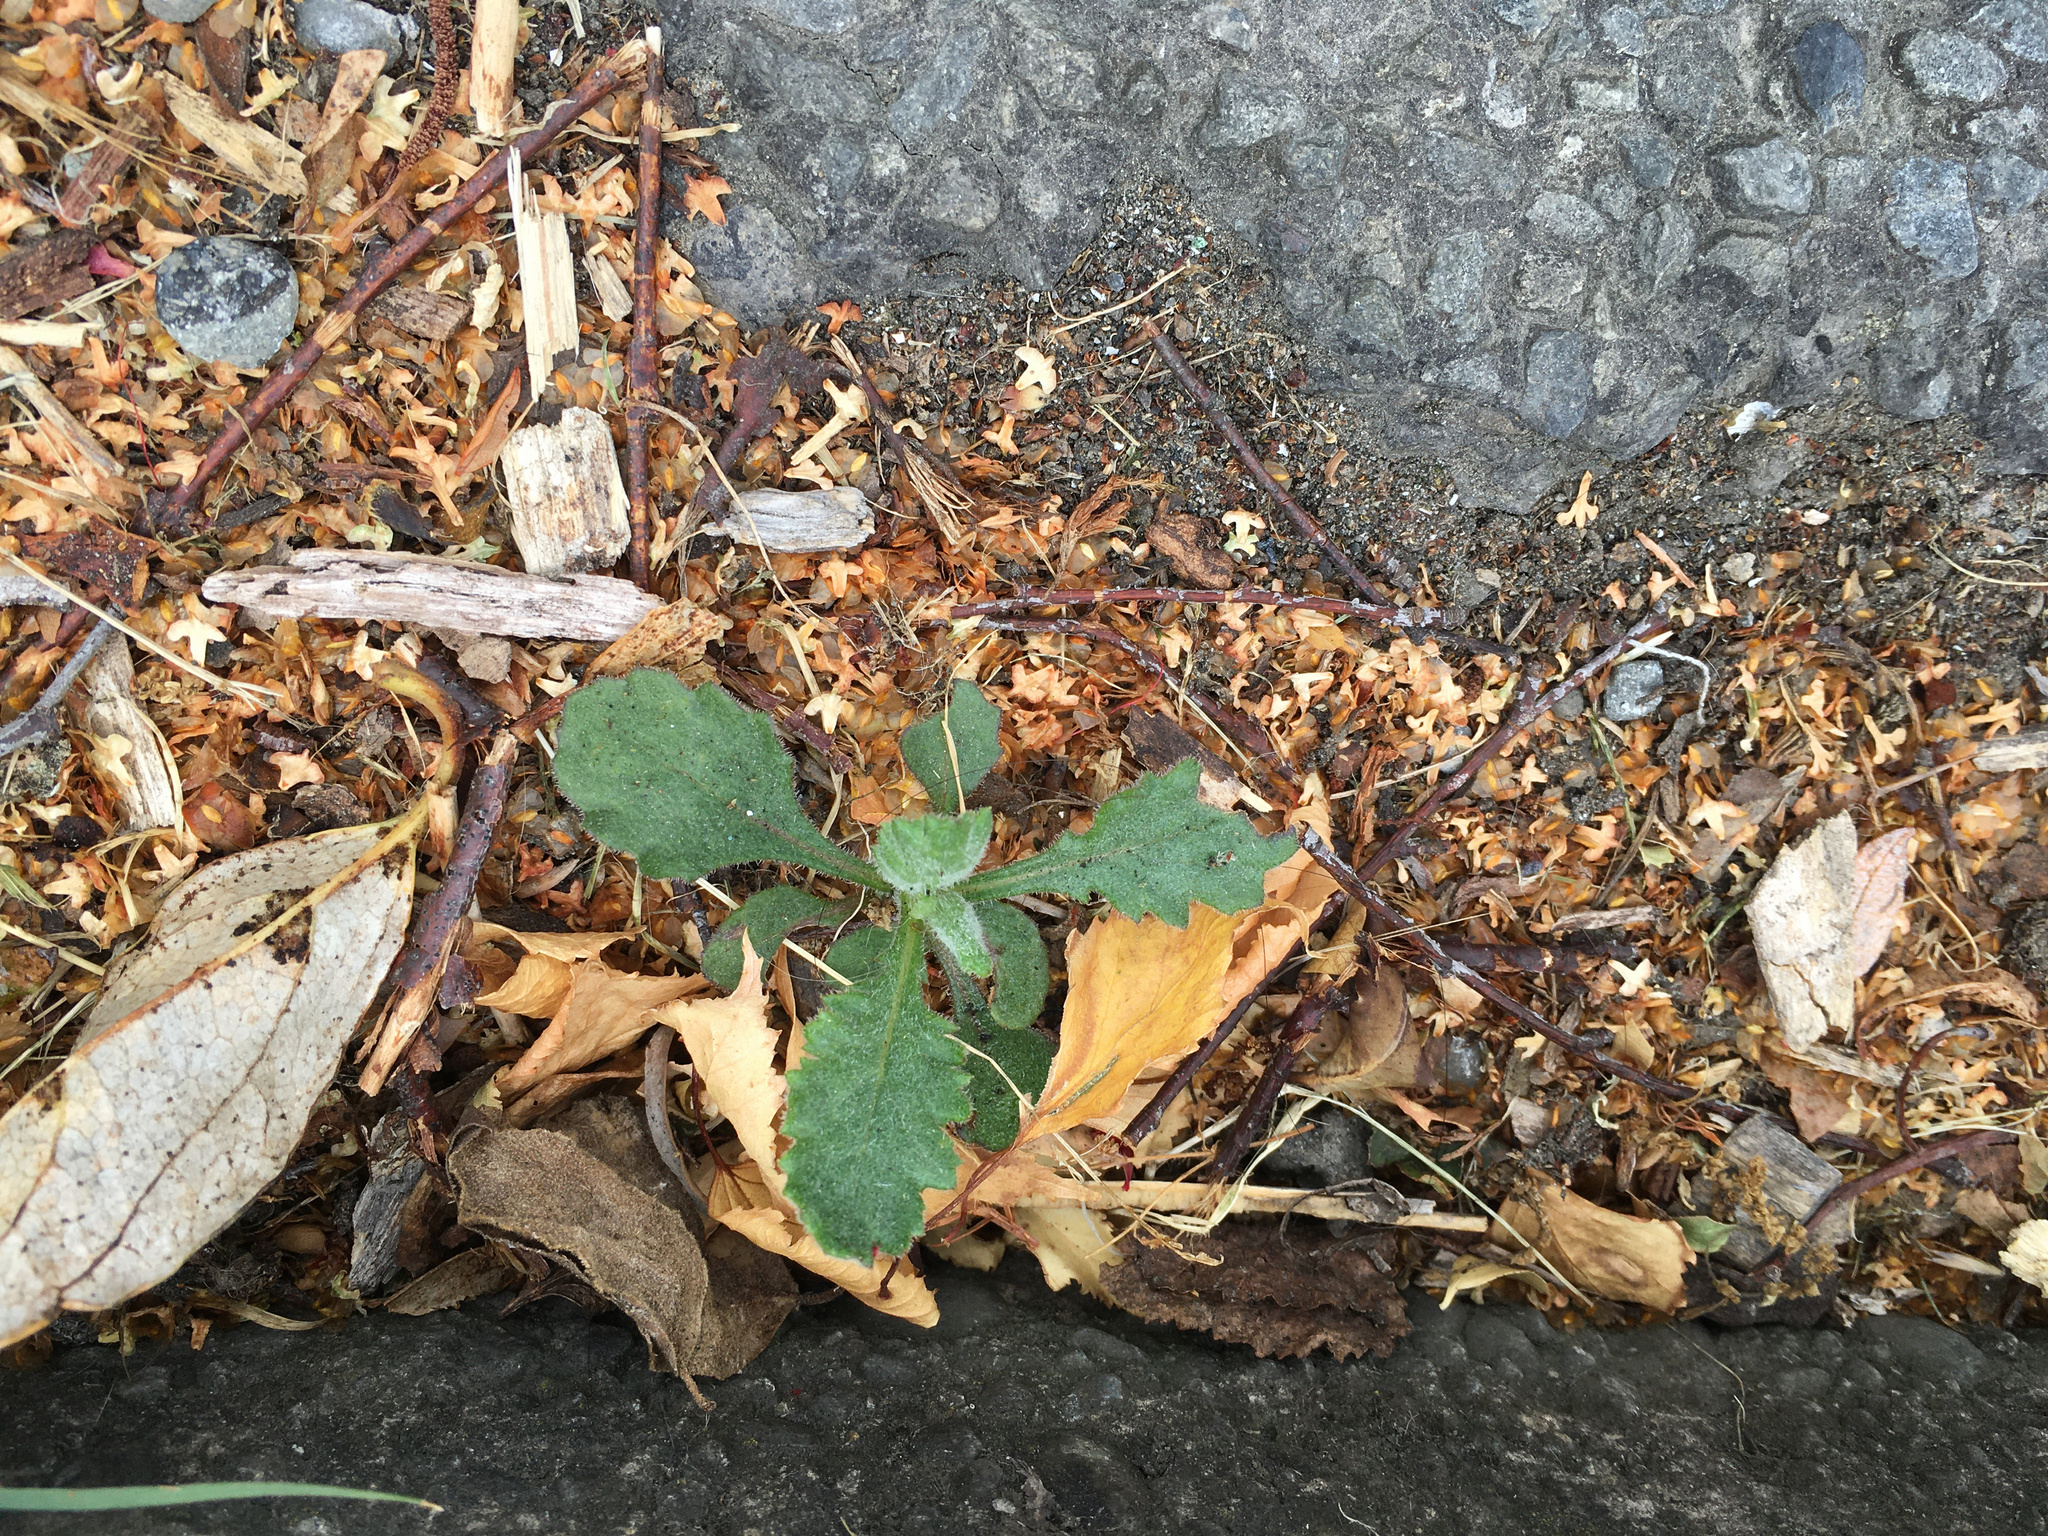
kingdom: Plantae
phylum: Tracheophyta
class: Magnoliopsida
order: Asterales
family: Asteraceae
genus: Senecio
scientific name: Senecio glomeratus
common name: Cutleaf burnweed
